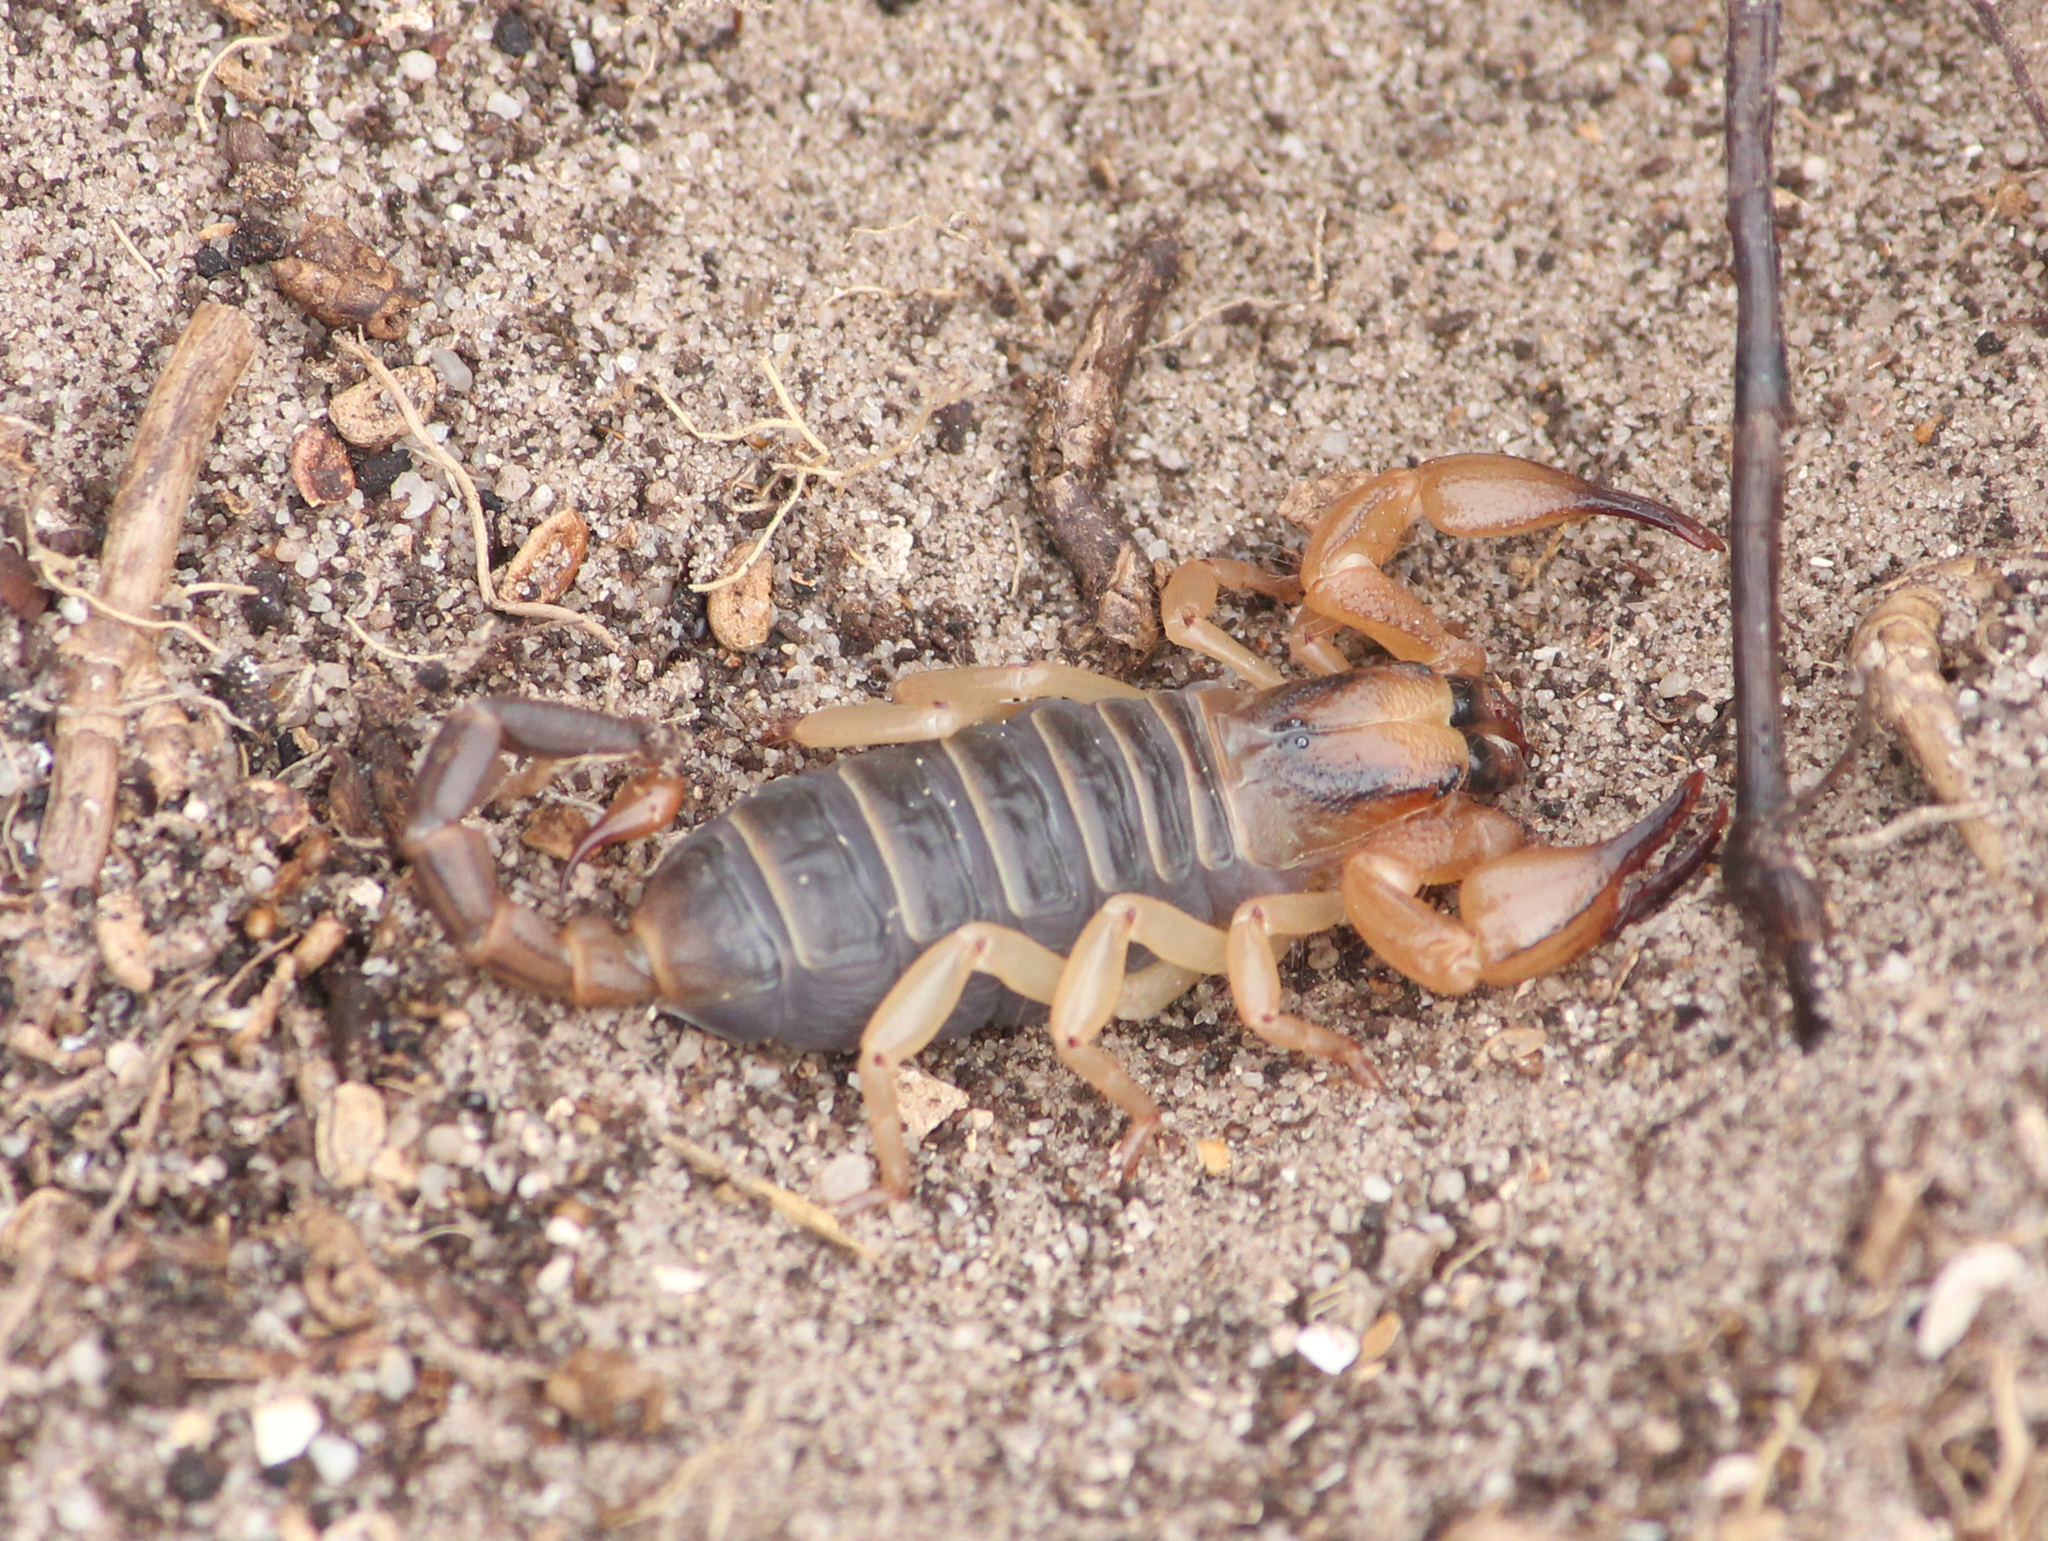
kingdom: Animalia
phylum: Arthropoda
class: Arachnida
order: Scorpiones
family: Scorpionidae
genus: Opistophthalmus
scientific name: Opistophthalmus capensis
